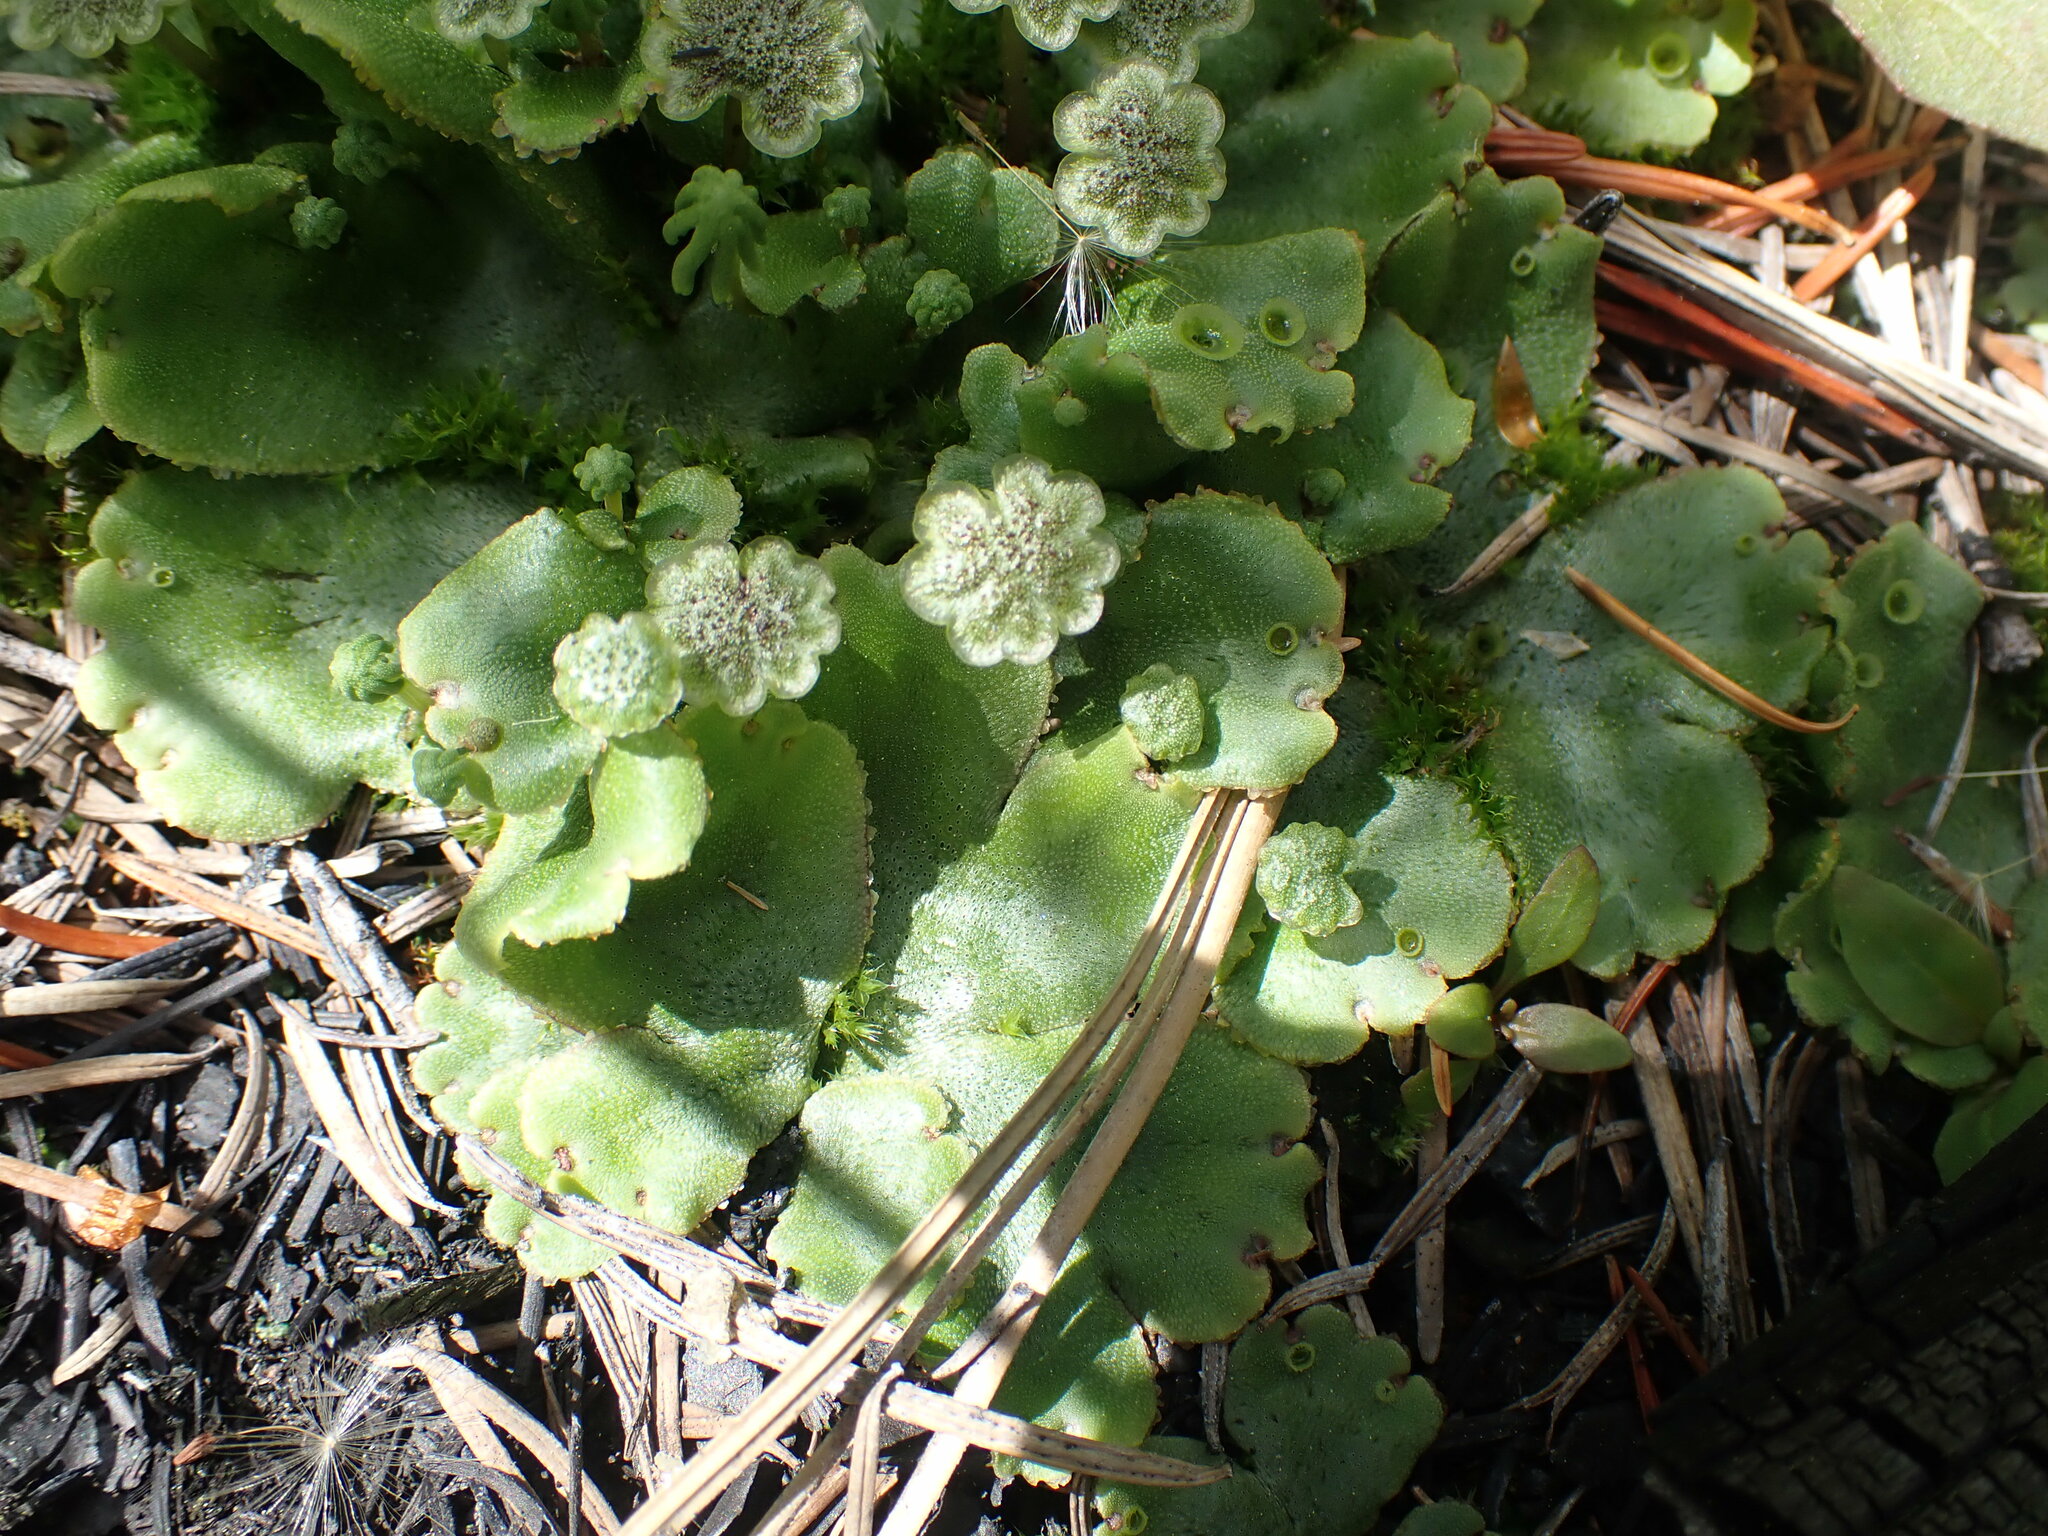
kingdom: Plantae
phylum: Marchantiophyta
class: Marchantiopsida
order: Marchantiales
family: Marchantiaceae
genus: Marchantia
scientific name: Marchantia polymorpha
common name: Common liverwort
